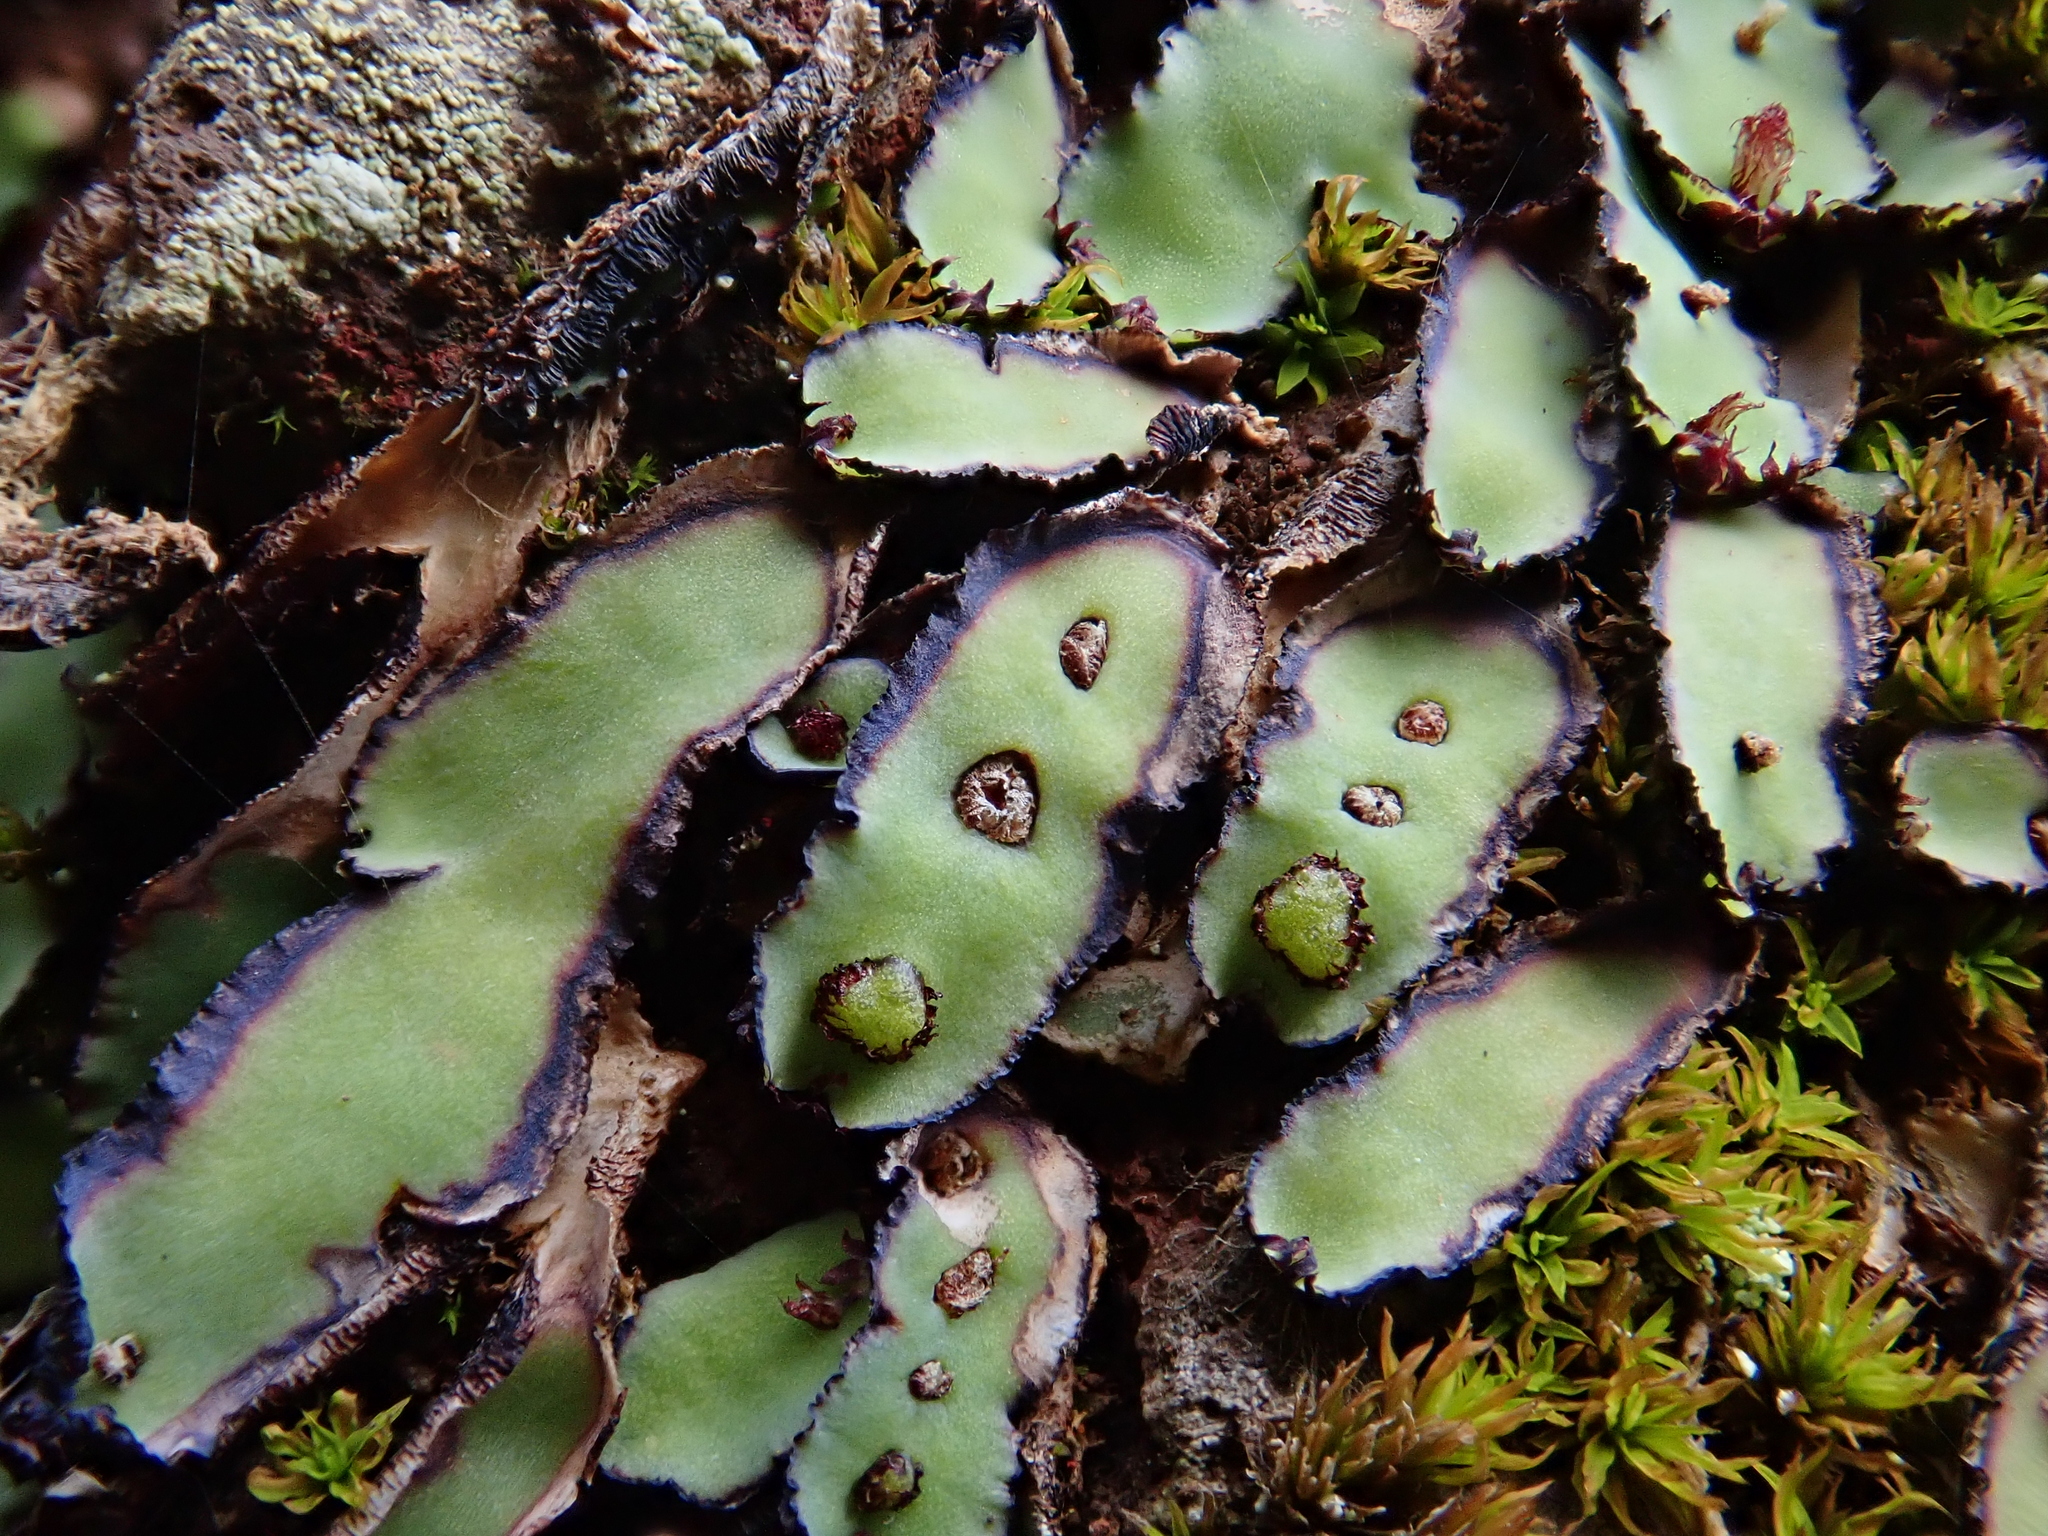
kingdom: Plantae
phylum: Marchantiophyta
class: Marchantiopsida
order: Marchantiales
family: Aytoniaceae
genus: Plagiochasma
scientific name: Plagiochasma rupestre
